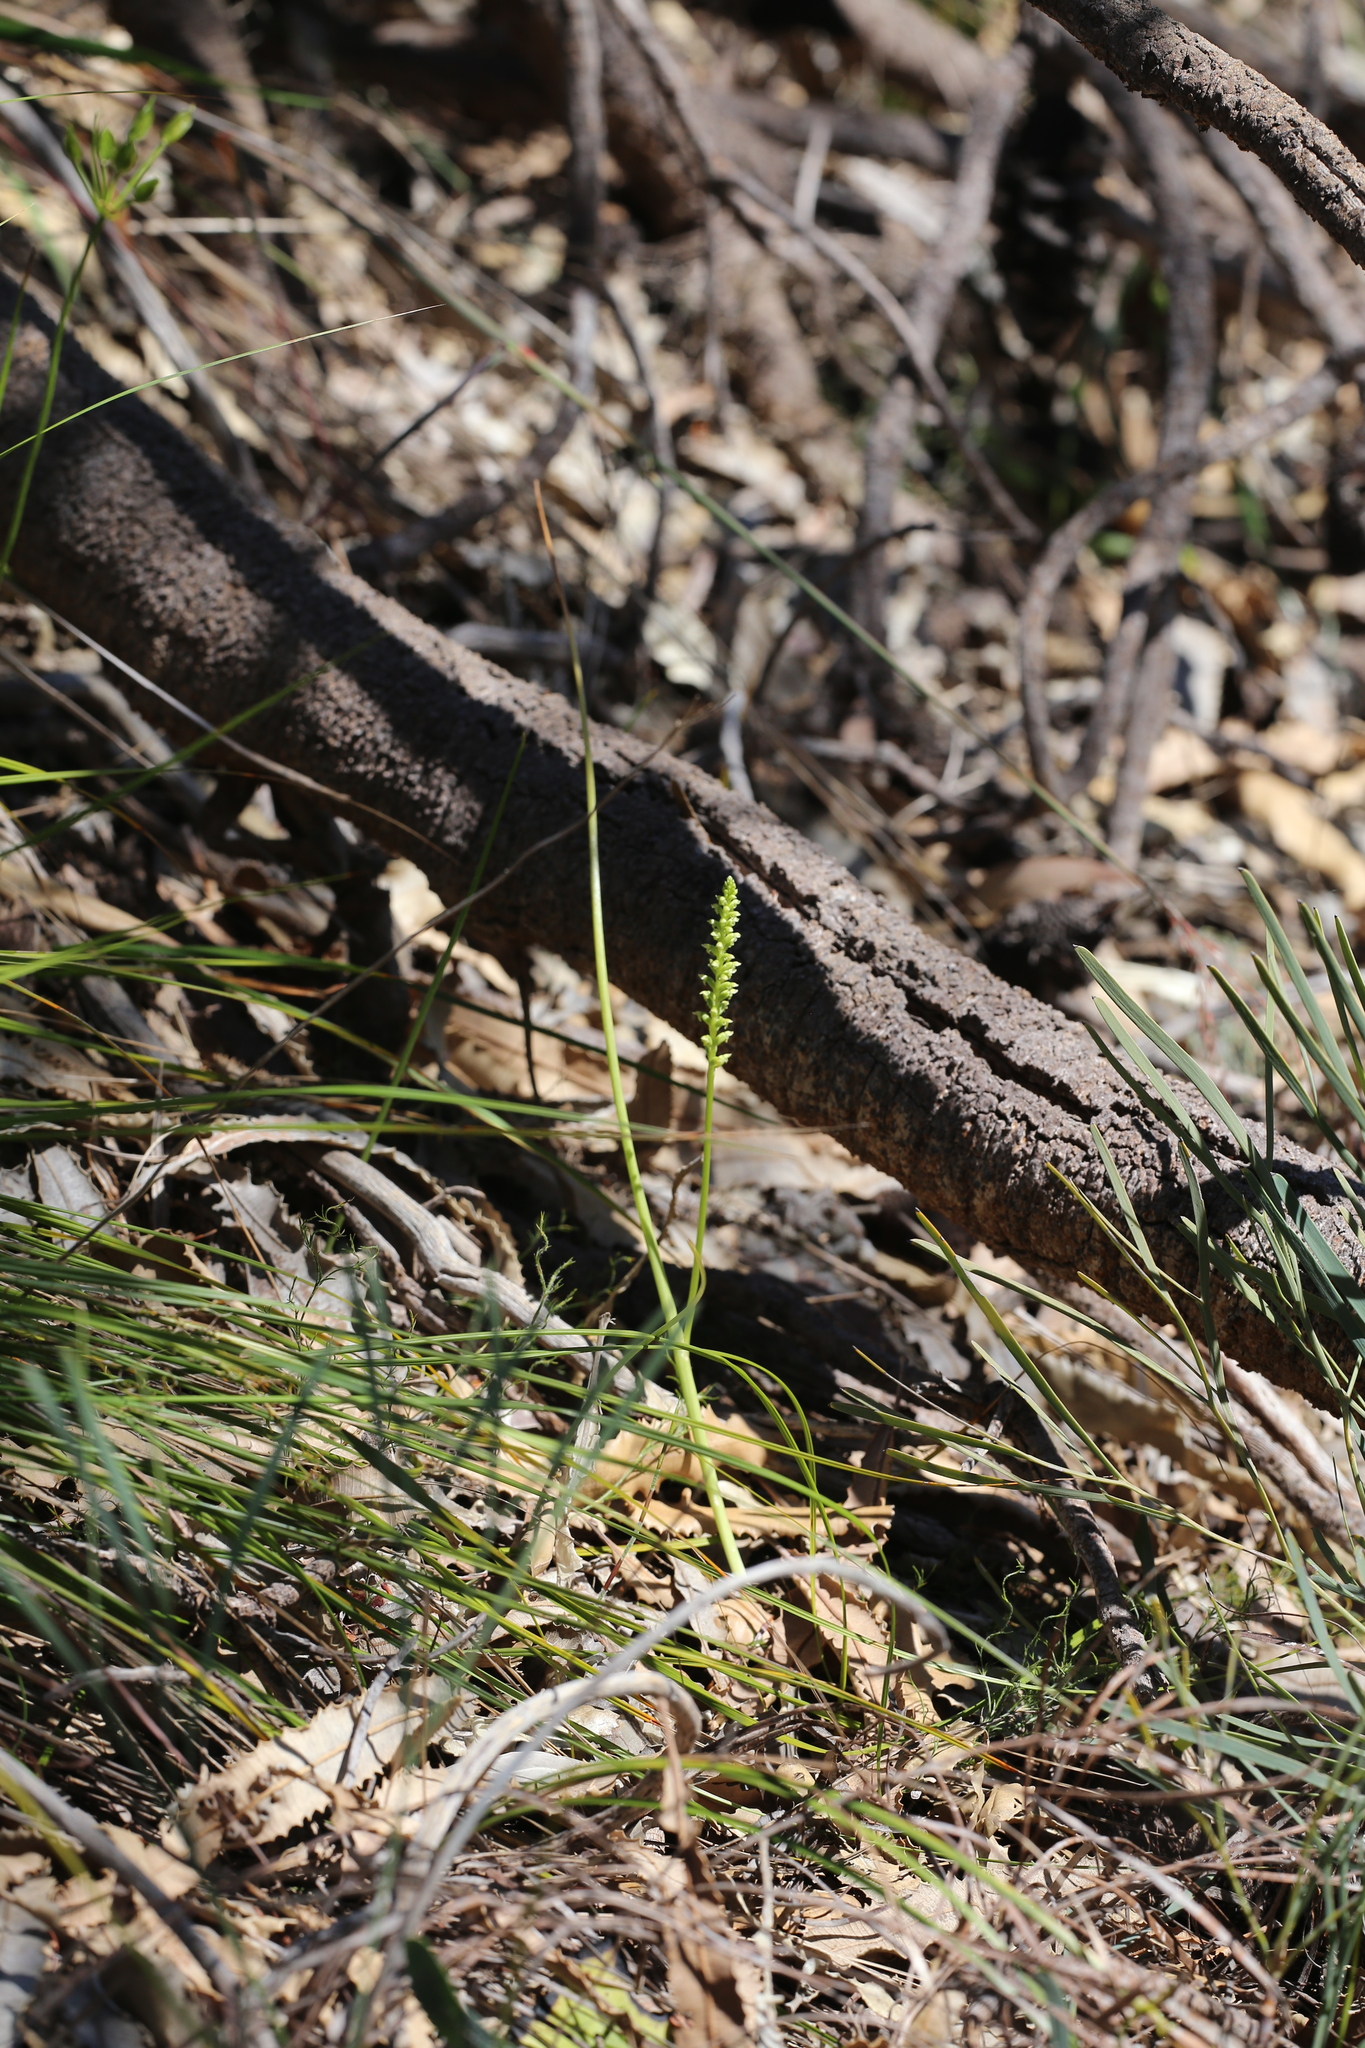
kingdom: Plantae
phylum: Tracheophyta
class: Liliopsida
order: Asparagales
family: Orchidaceae
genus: Microtis
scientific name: Microtis media
